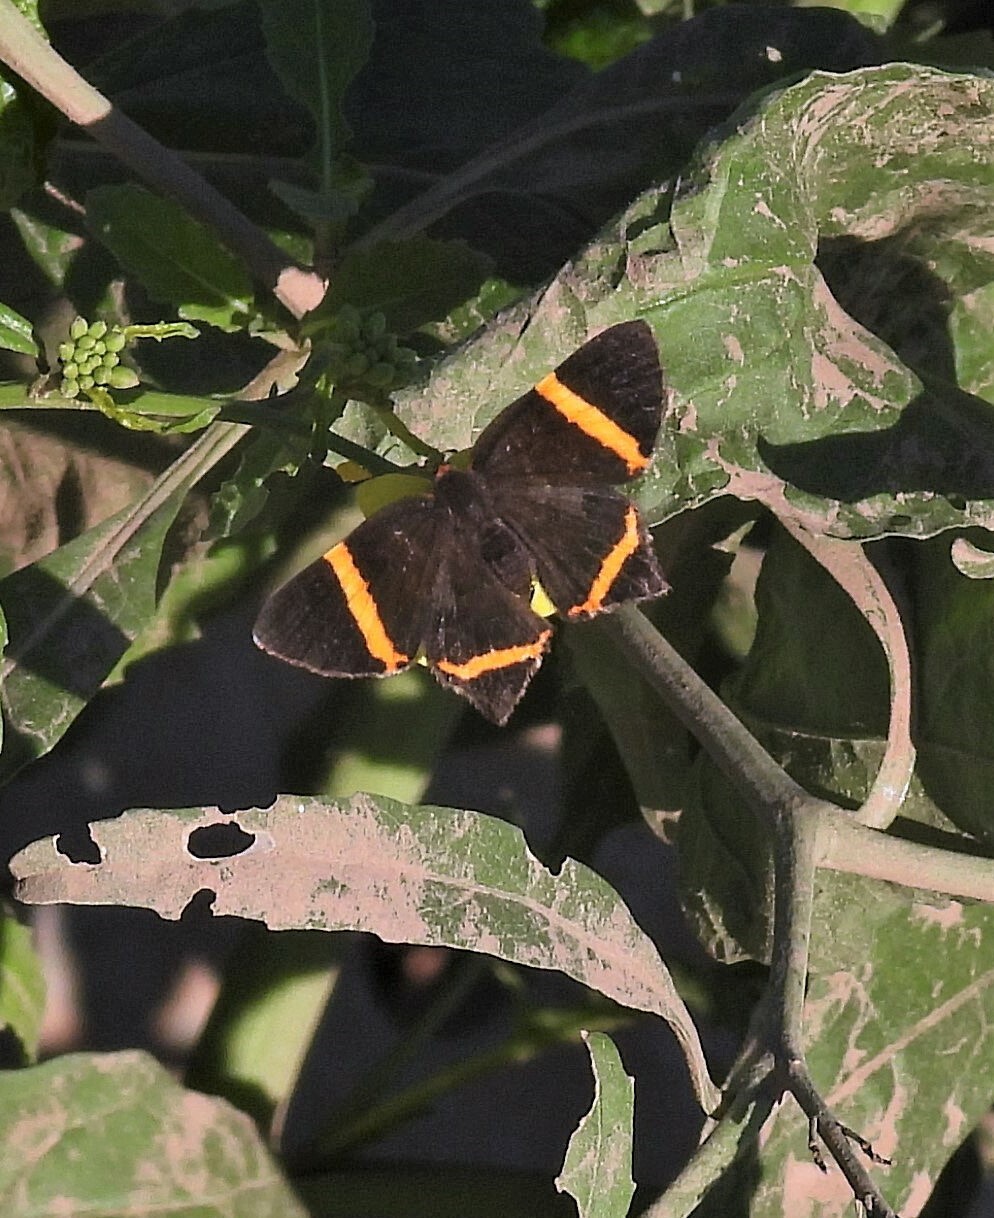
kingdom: Animalia
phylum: Arthropoda
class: Insecta
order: Lepidoptera
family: Riodinidae
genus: Riodina
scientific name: Riodina lysippoides
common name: Little dancer metalmark
